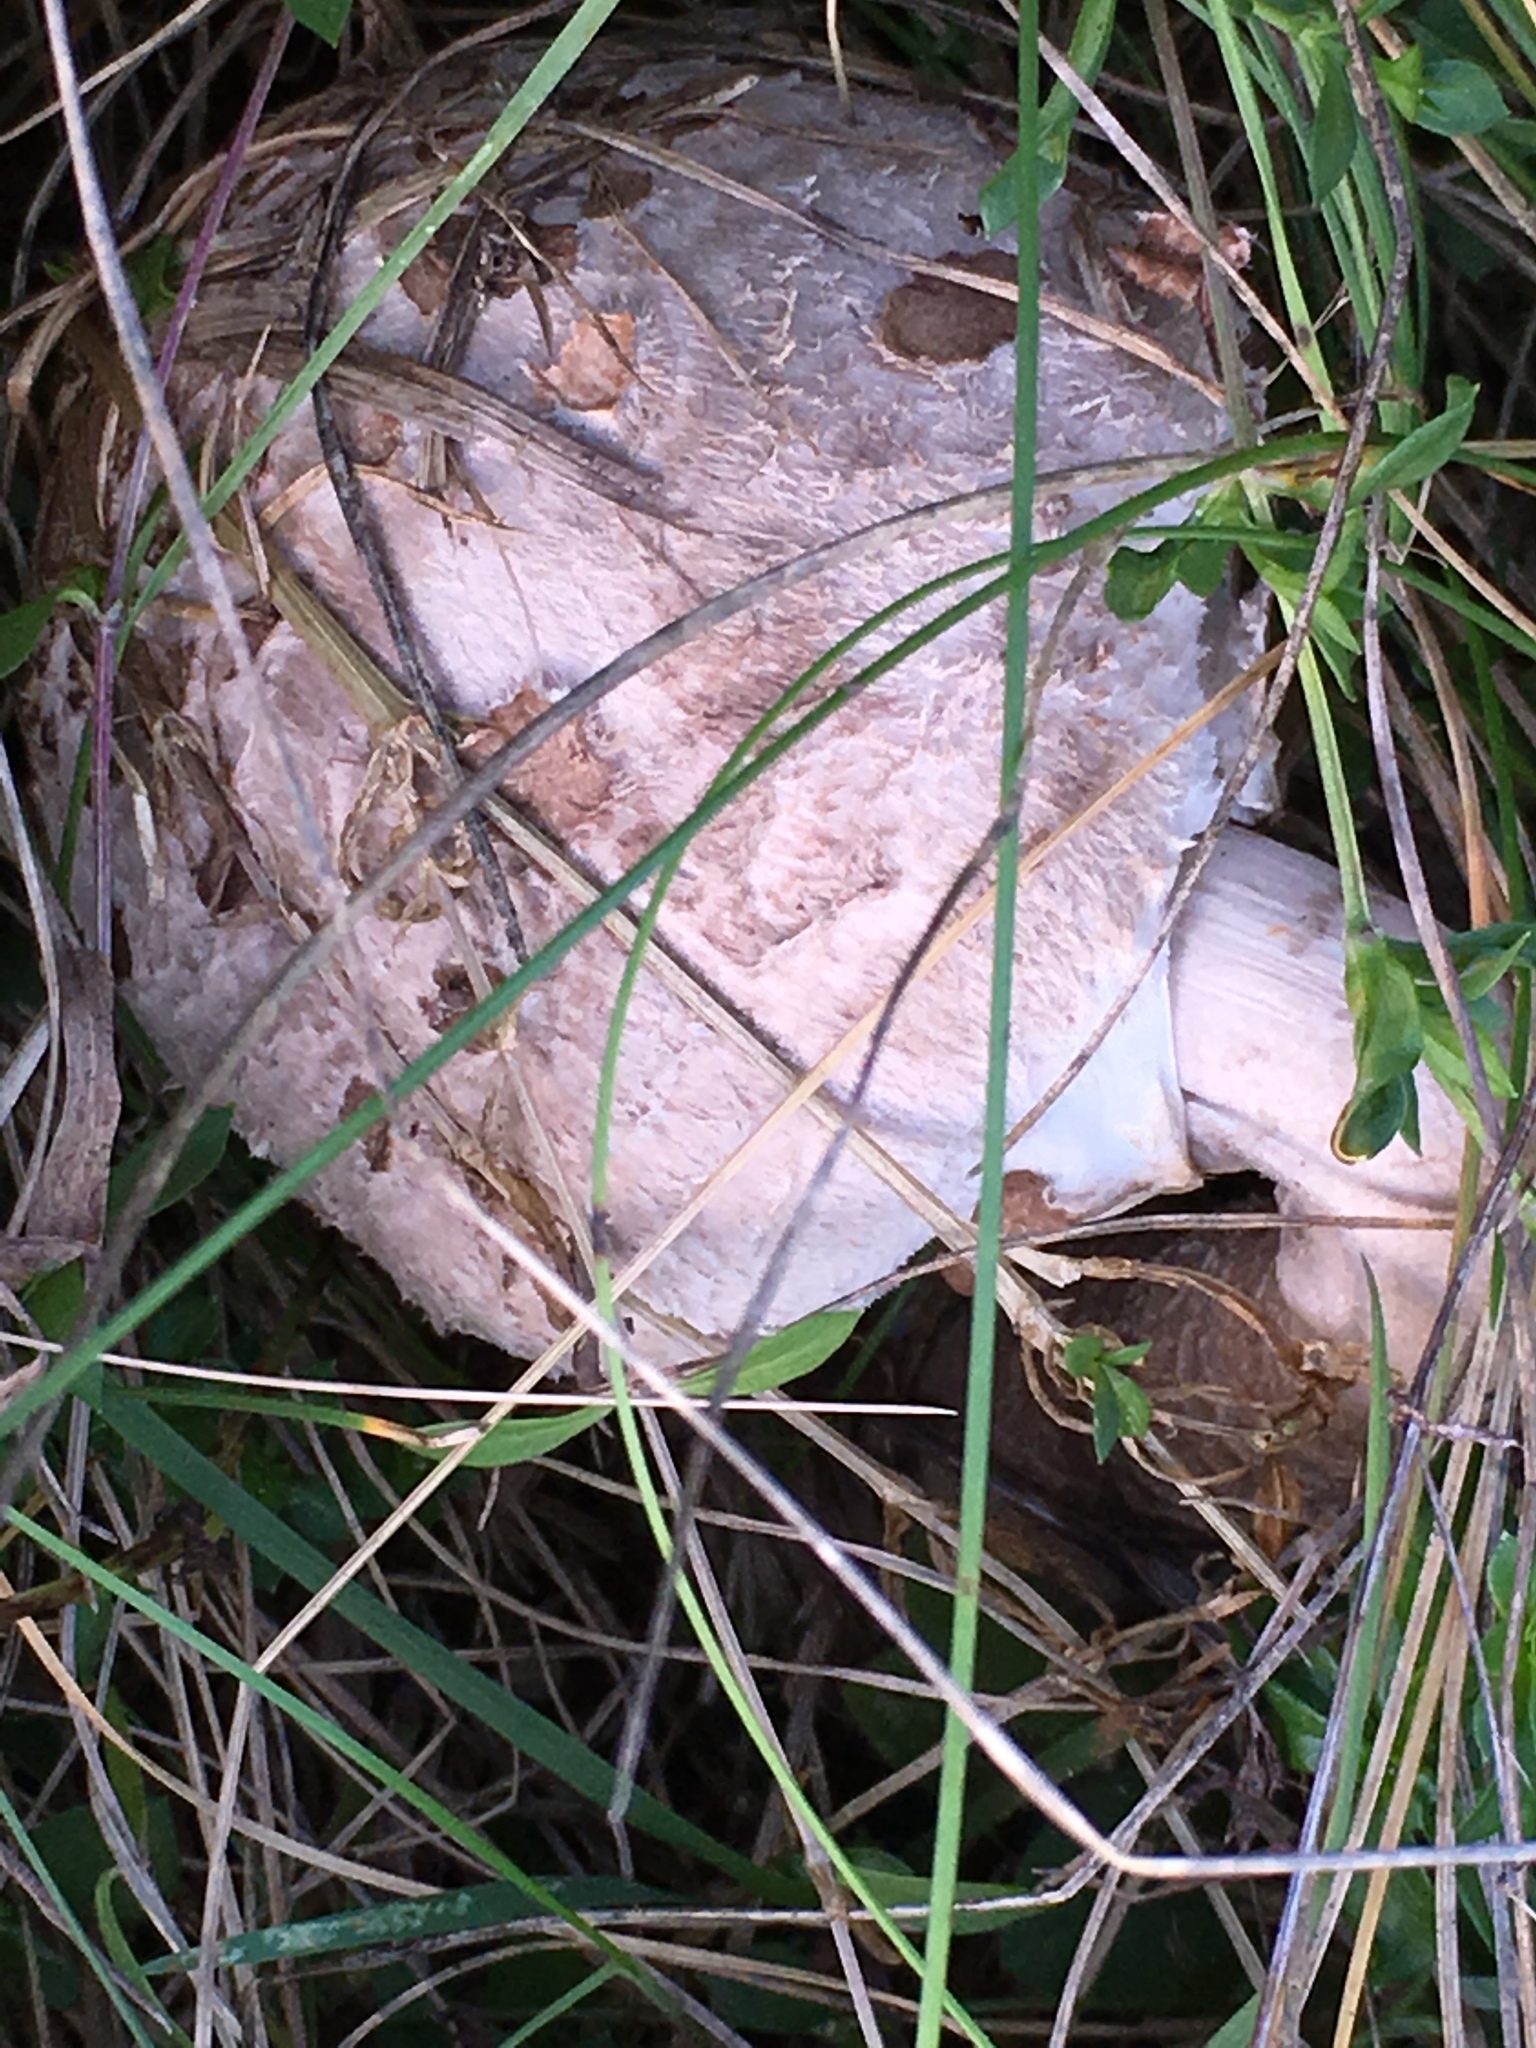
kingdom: Fungi
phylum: Basidiomycota
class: Agaricomycetes
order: Agaricales
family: Agaricaceae
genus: Macrolepiota
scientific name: Macrolepiota procera
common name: Parasol
